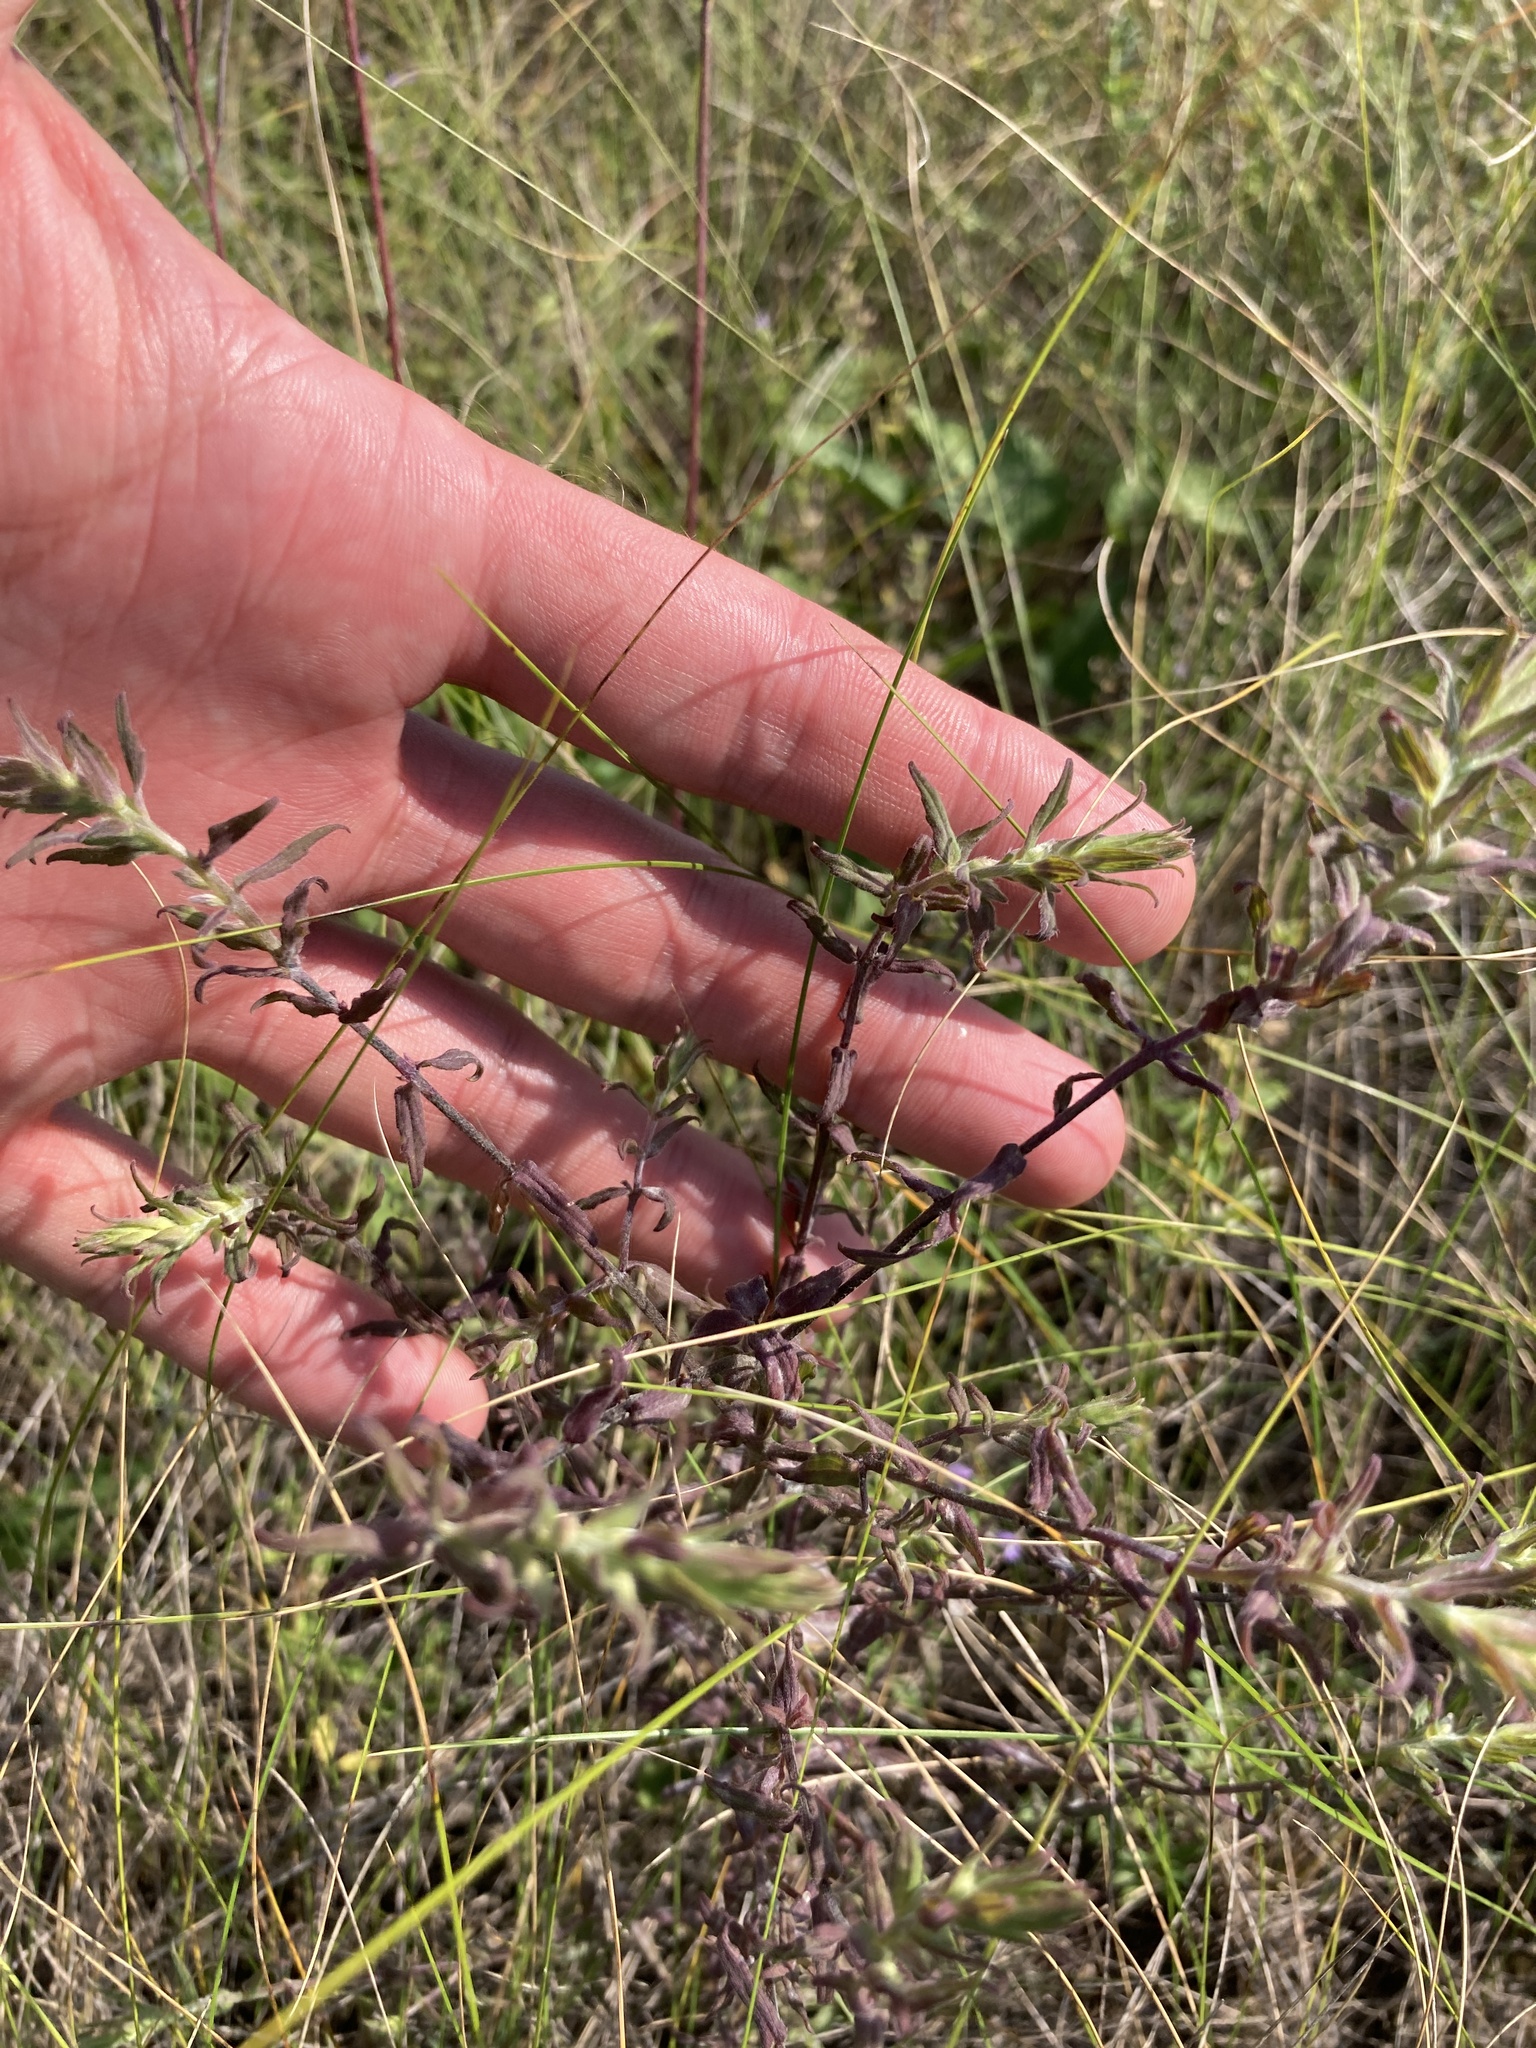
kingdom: Plantae
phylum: Tracheophyta
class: Magnoliopsida
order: Lamiales
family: Orobanchaceae
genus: Odontites
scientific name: Odontites vulgaris
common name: Broomrape
